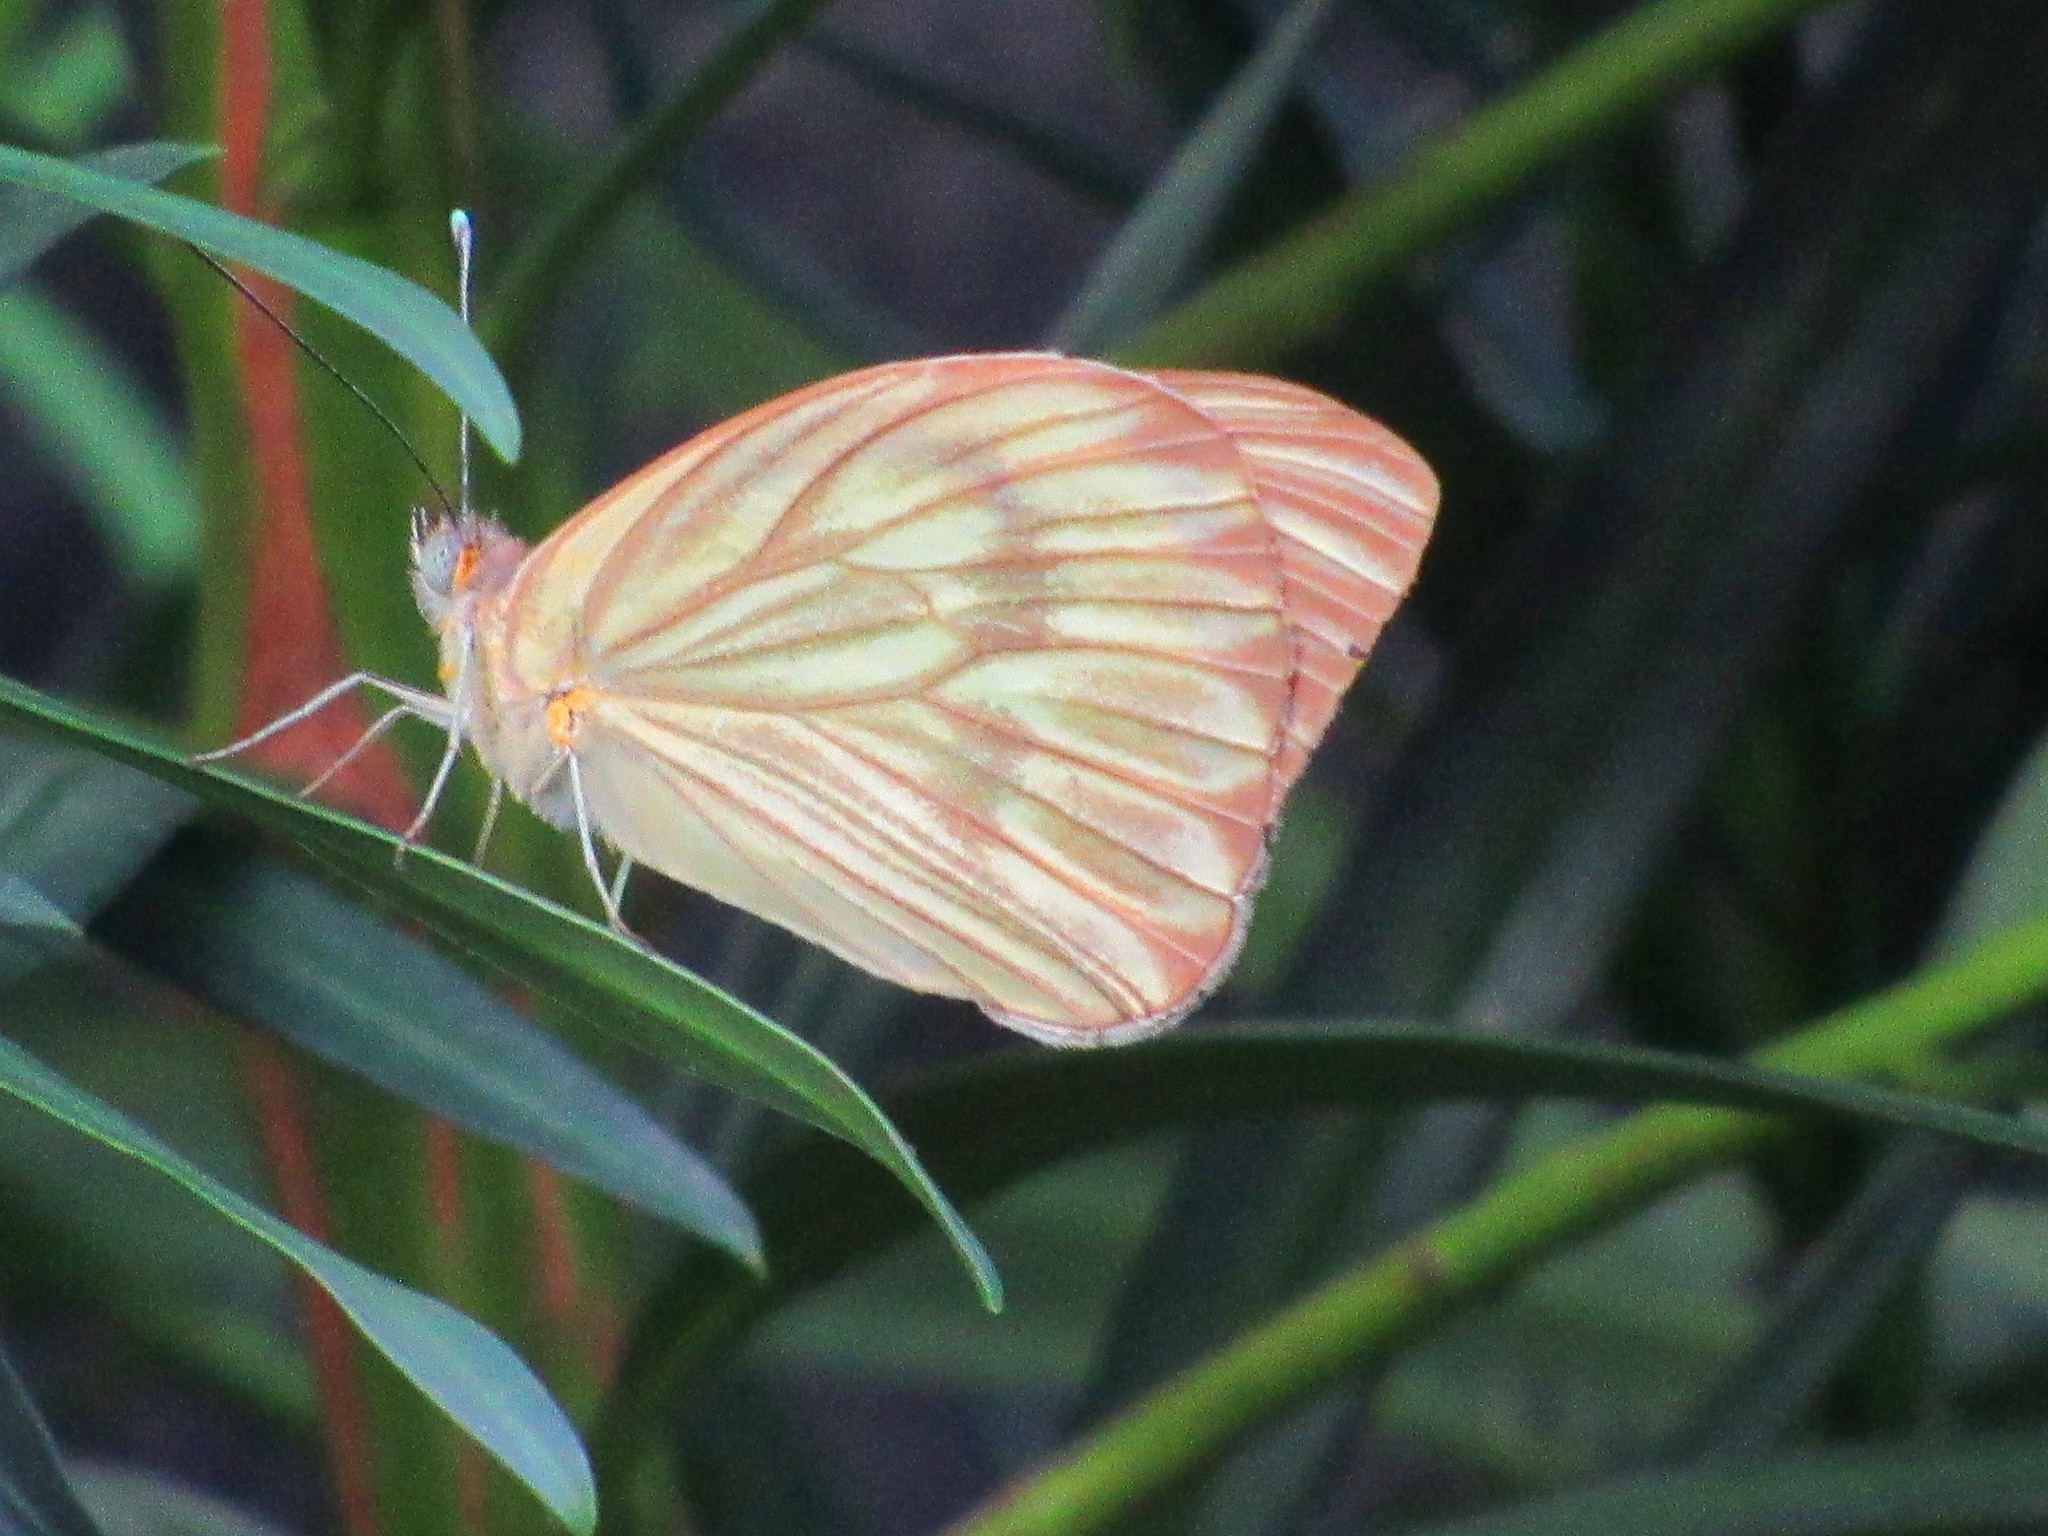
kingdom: Animalia
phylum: Arthropoda
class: Insecta
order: Lepidoptera
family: Pieridae
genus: Ascia
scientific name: Ascia monuste
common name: Great southern white
